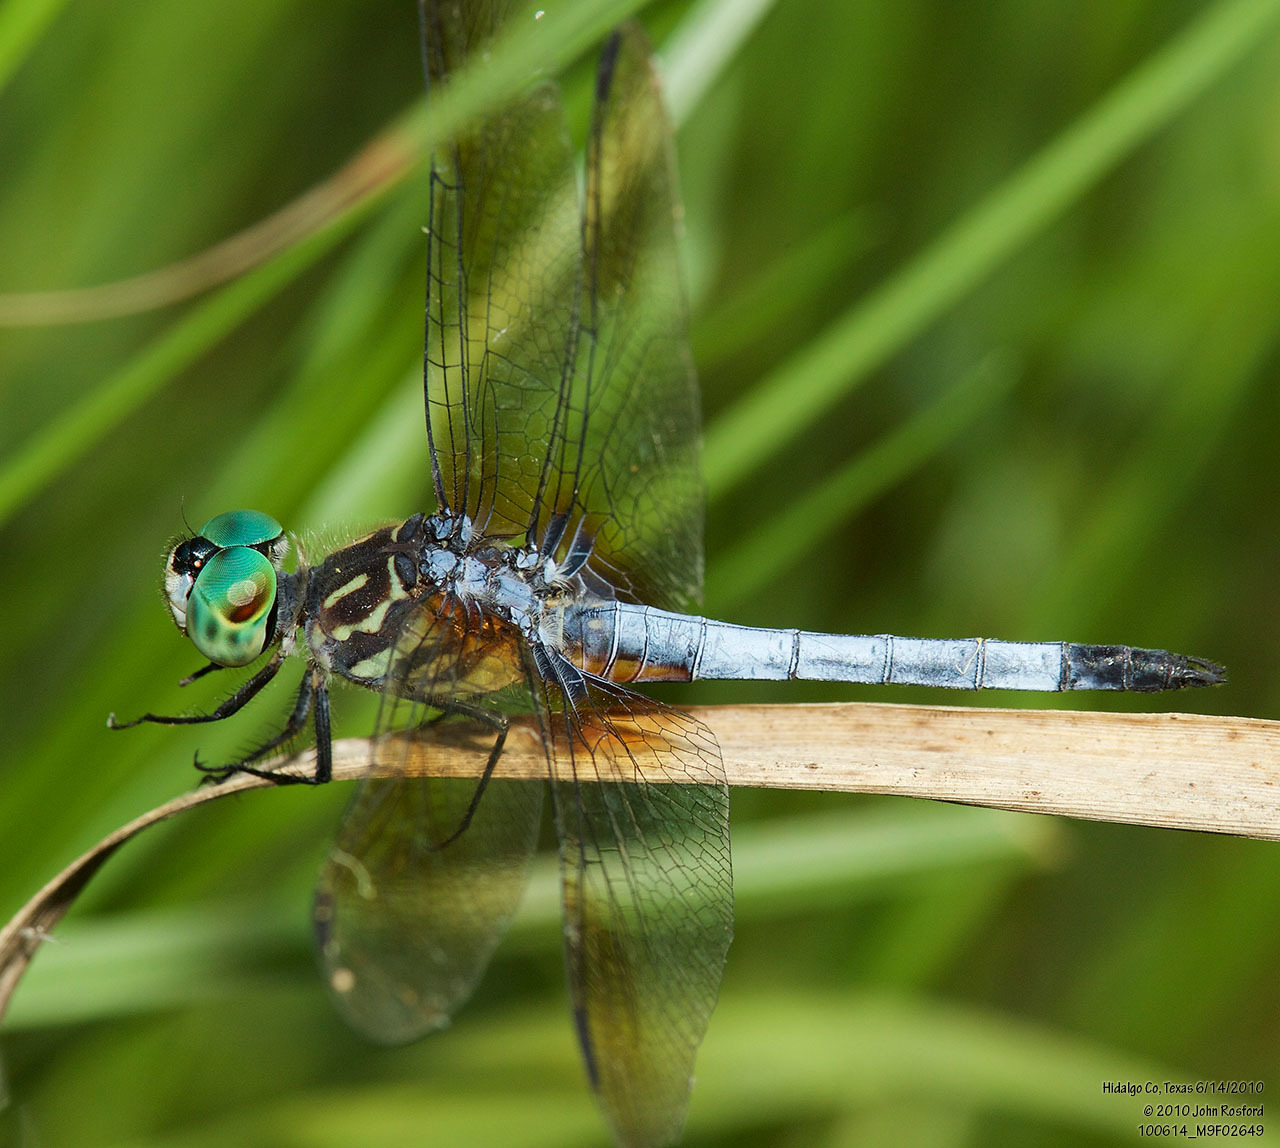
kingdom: Animalia
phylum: Arthropoda
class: Insecta
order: Odonata
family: Libellulidae
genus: Pachydiplax
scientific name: Pachydiplax longipennis
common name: Blue dasher
